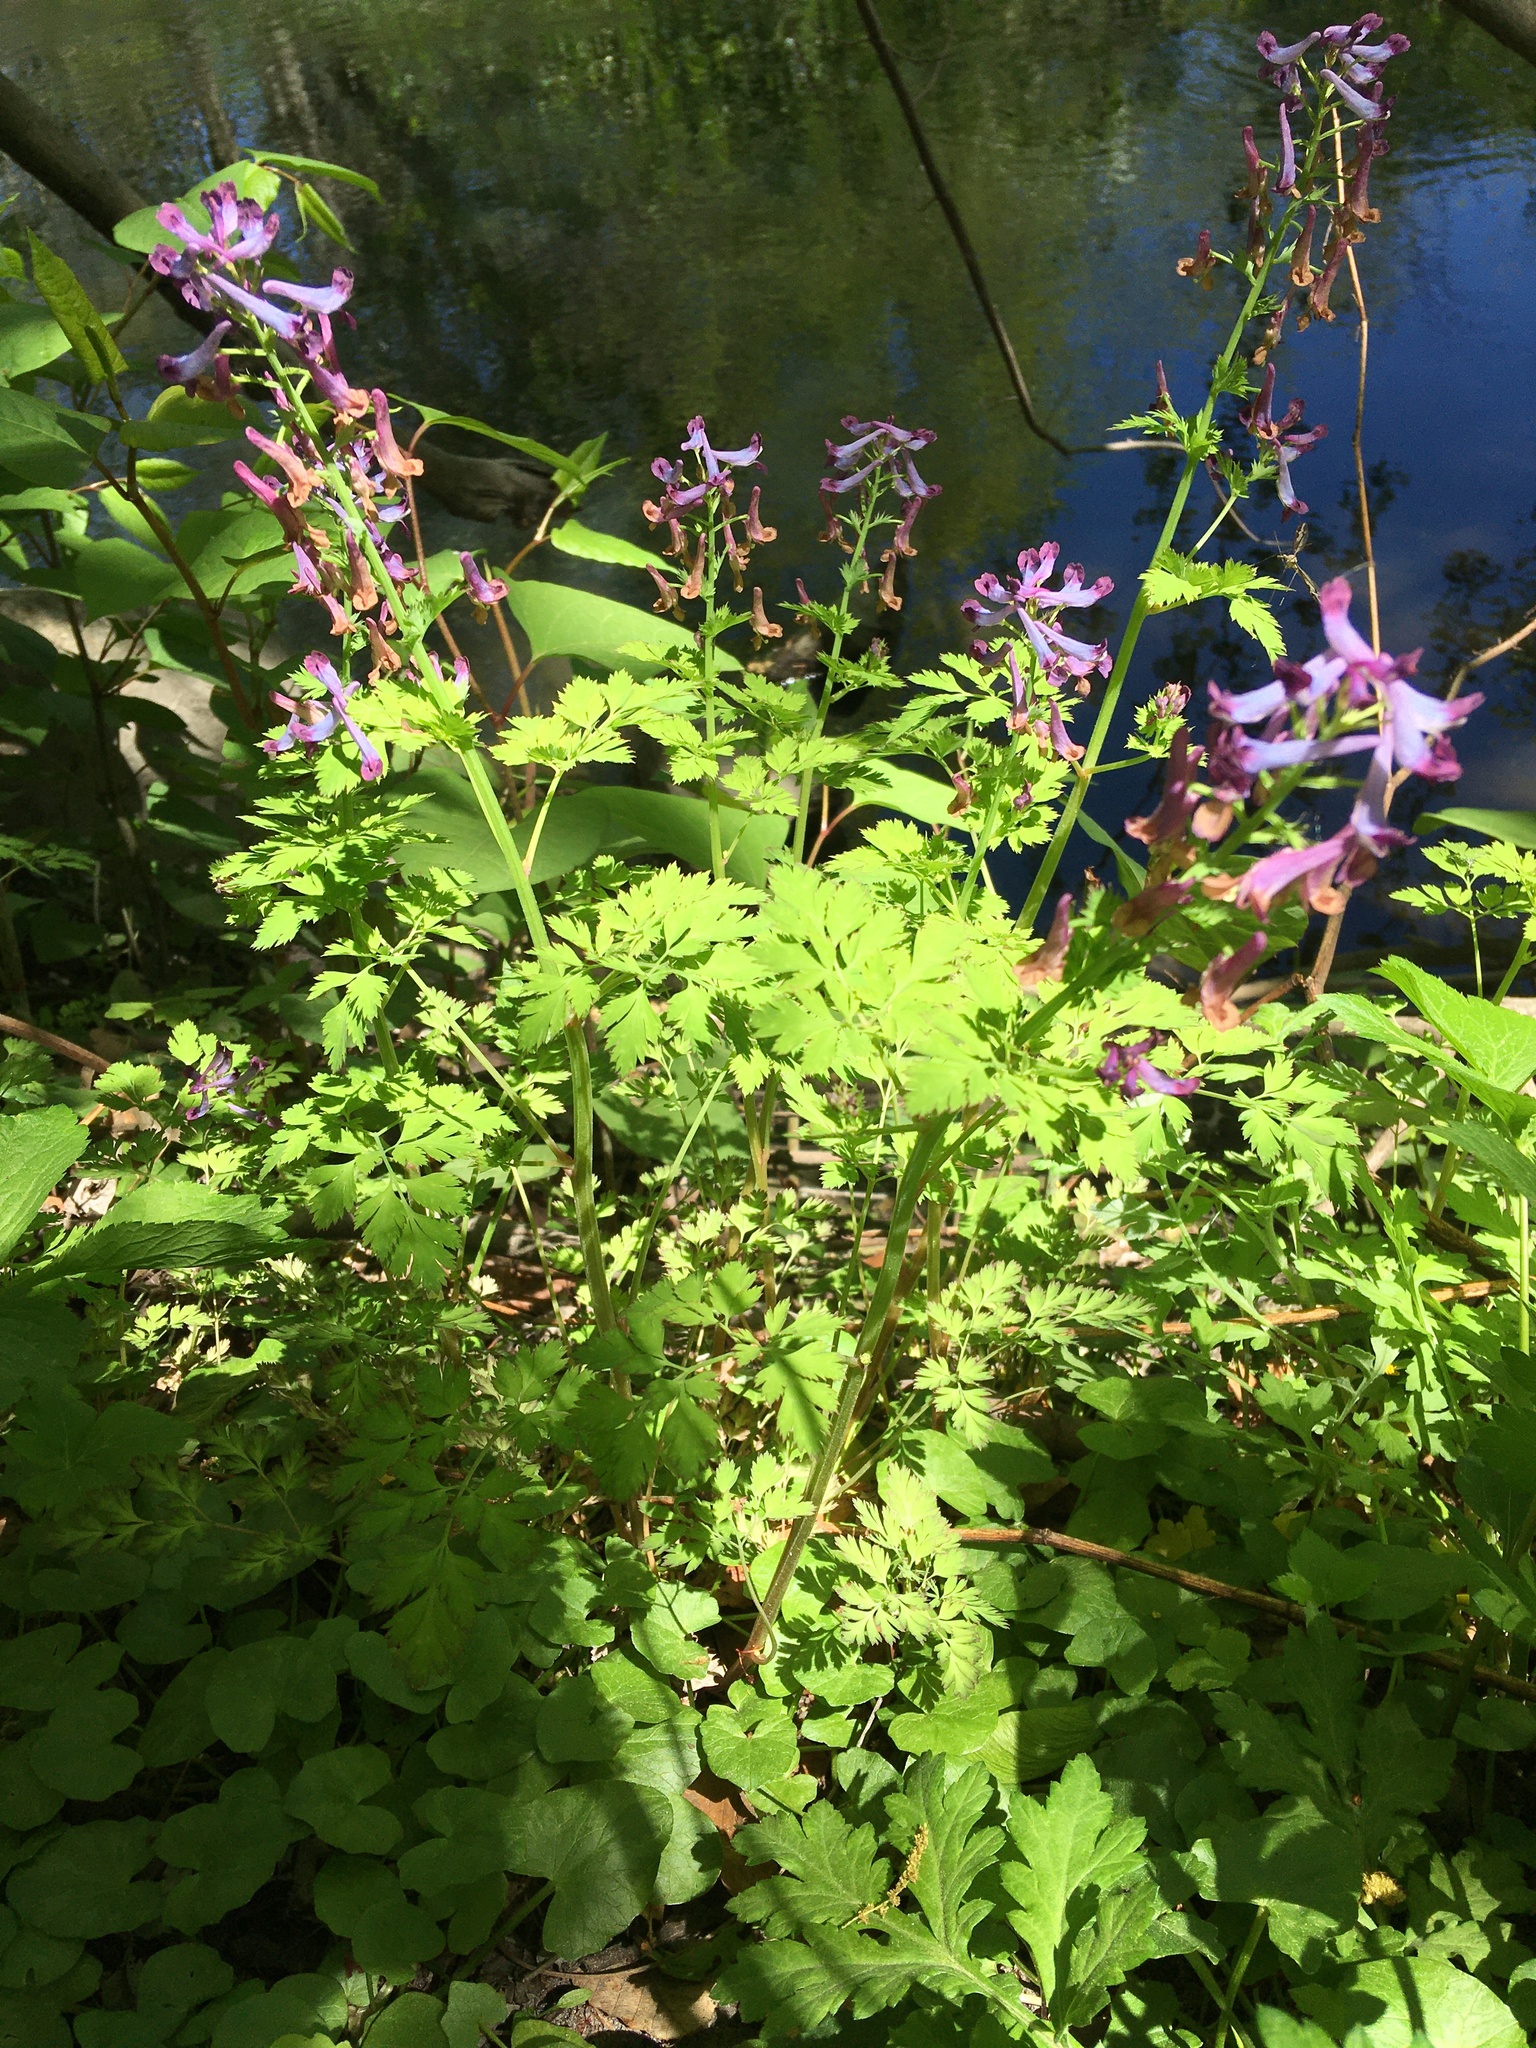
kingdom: Plantae
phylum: Tracheophyta
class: Magnoliopsida
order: Ranunculales
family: Papaveraceae
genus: Corydalis
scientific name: Corydalis incisa
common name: Incised fumewort
